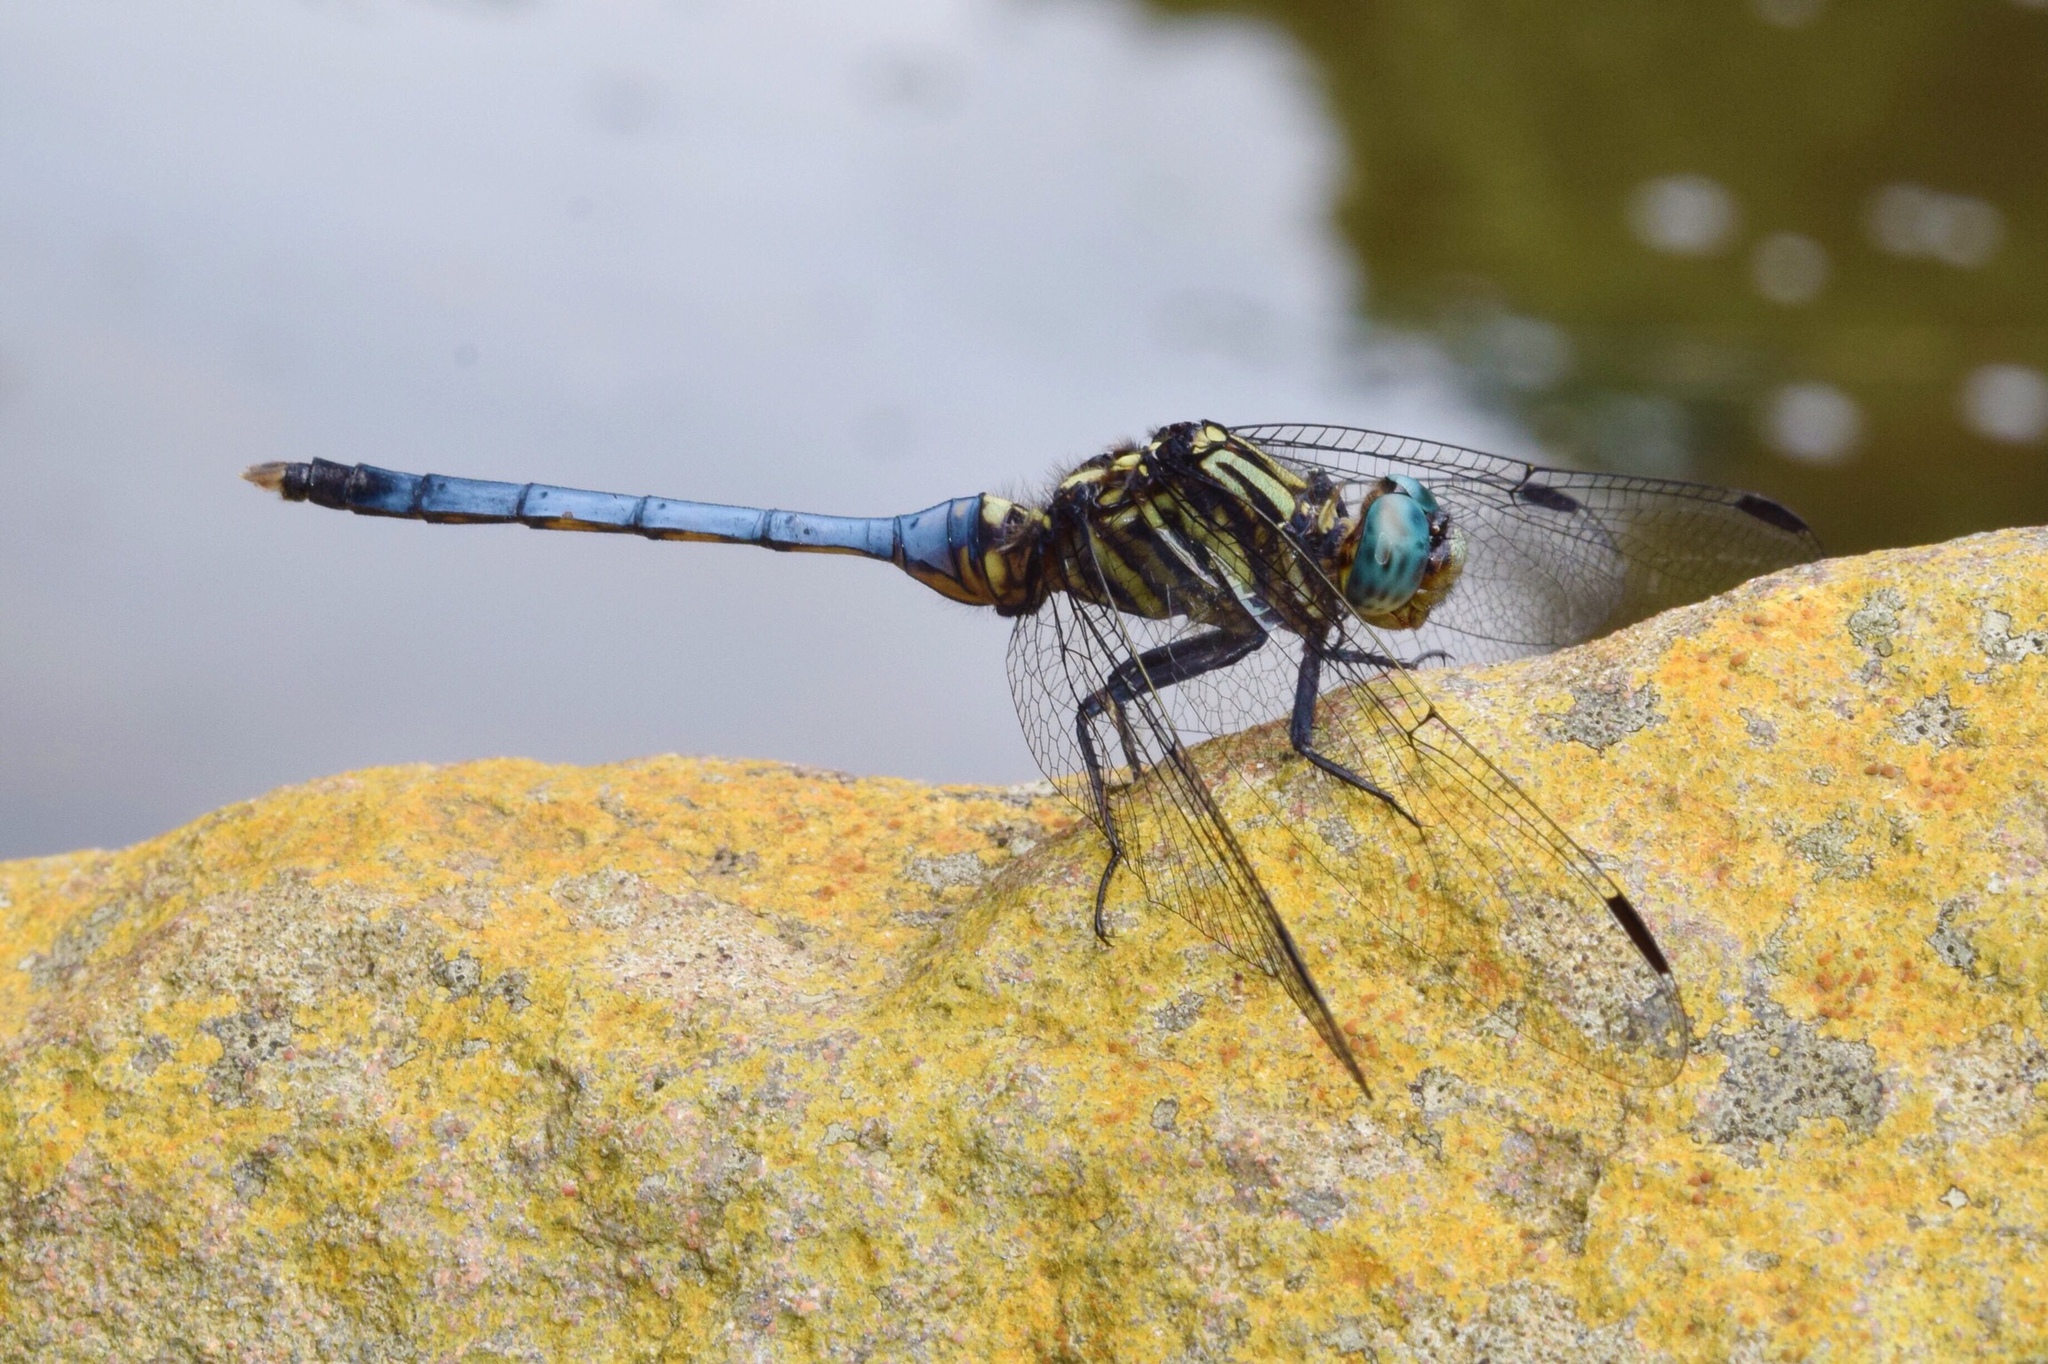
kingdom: Animalia
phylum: Arthropoda
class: Insecta
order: Odonata
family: Libellulidae
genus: Orthetrum
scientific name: Orthetrum julia
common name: Julia skimmer
